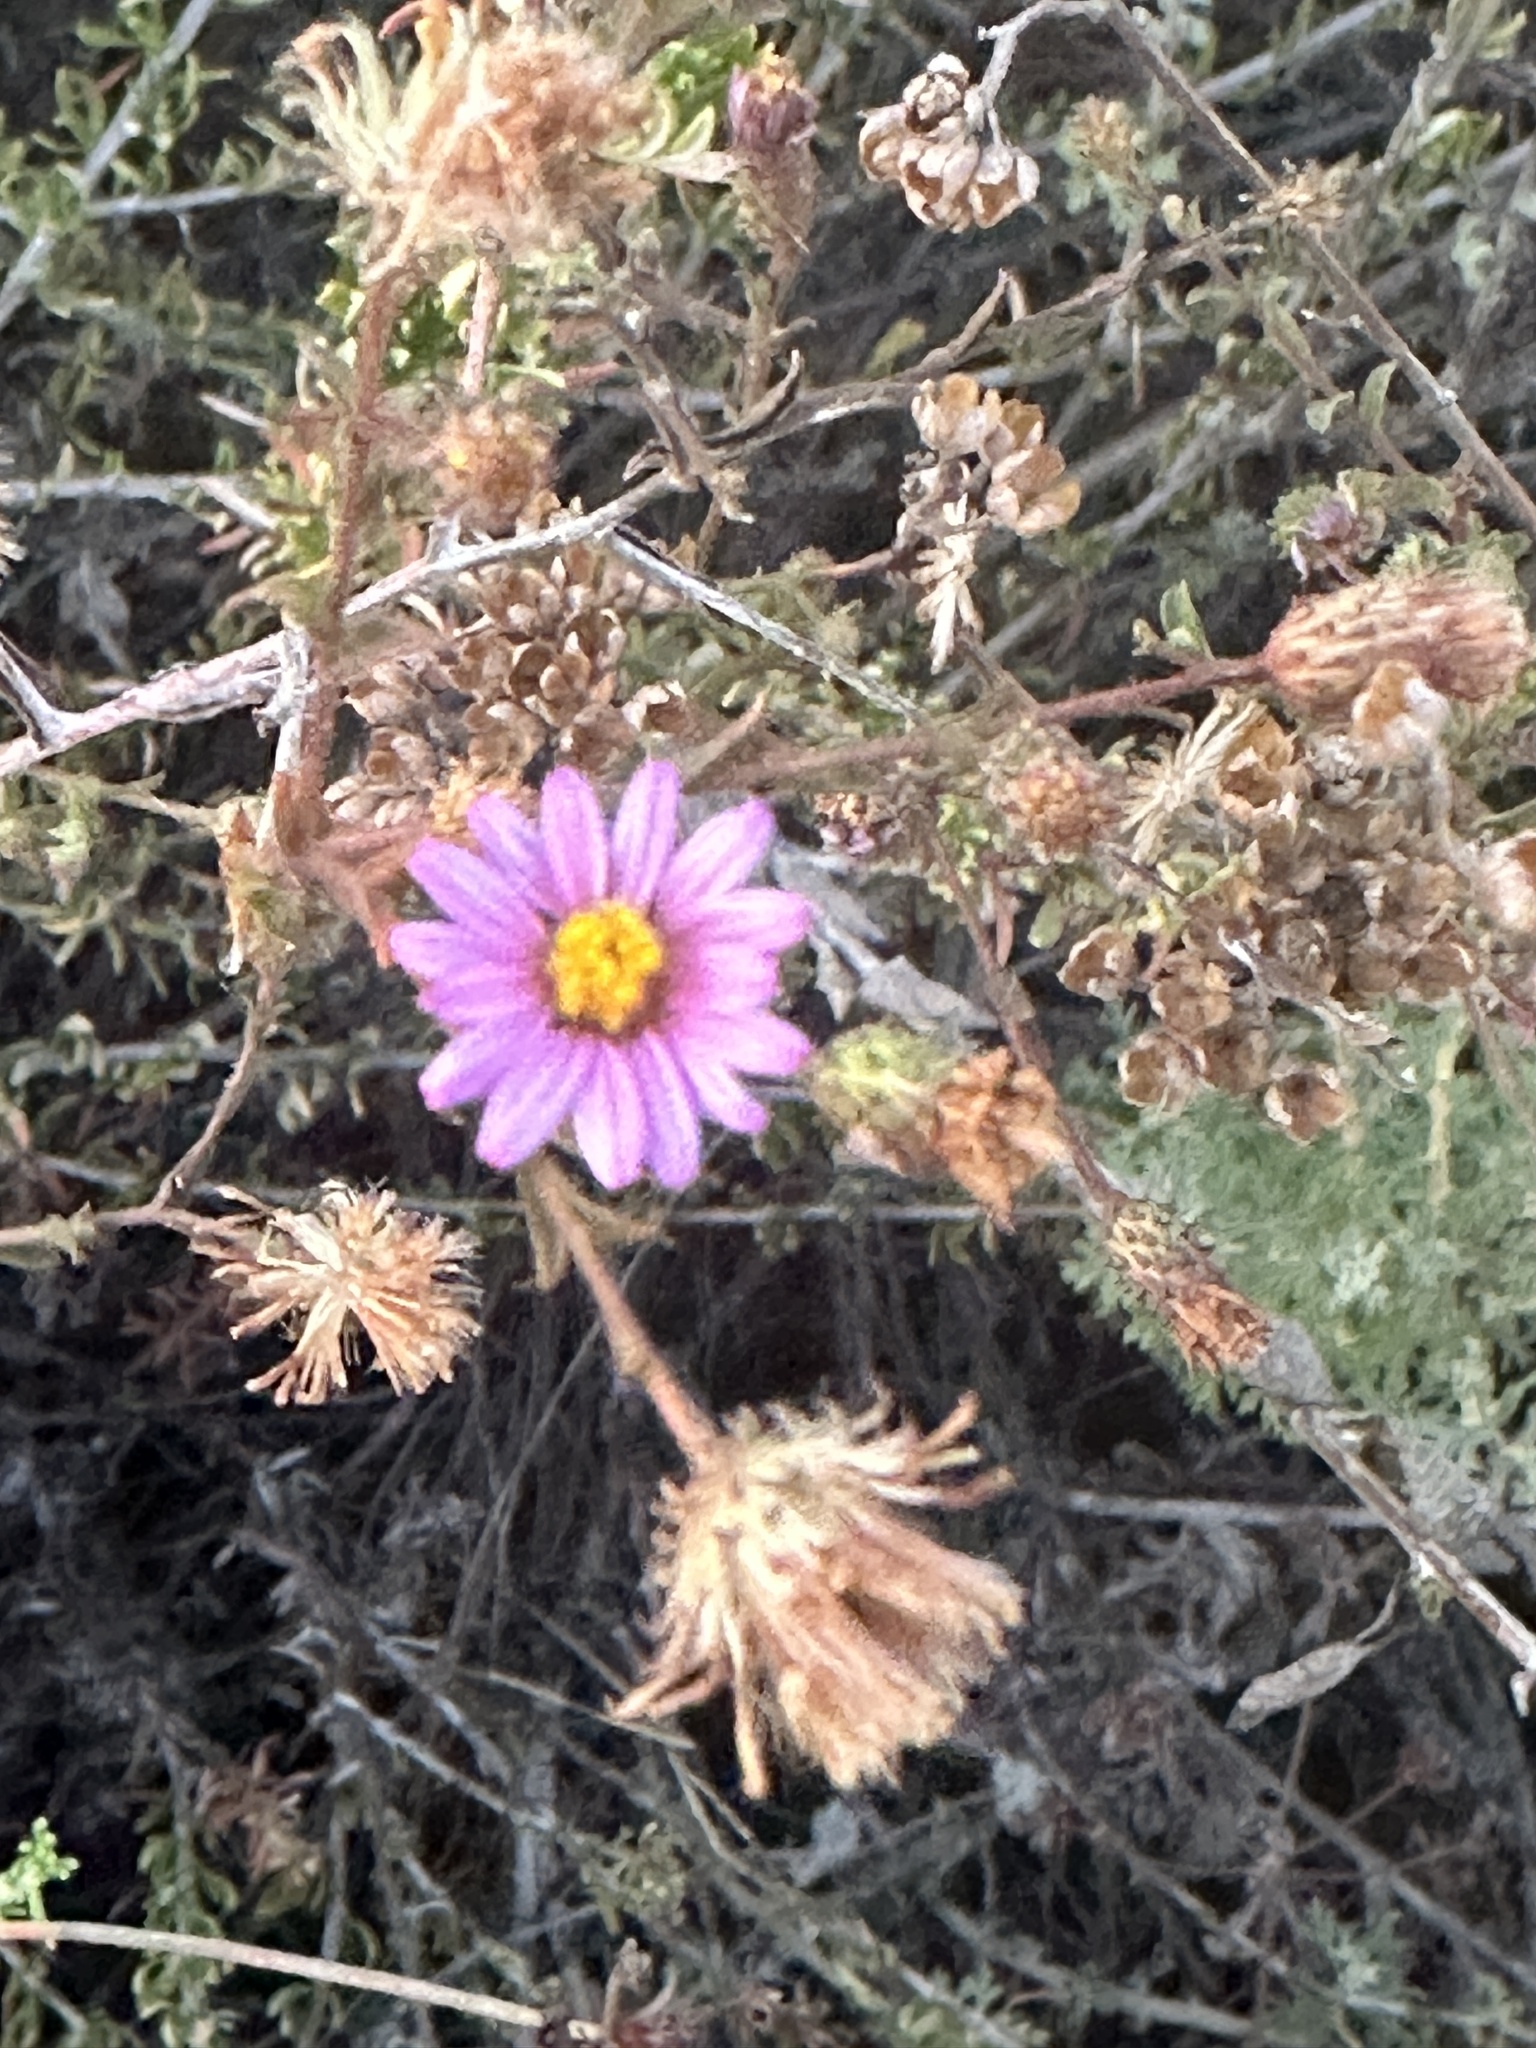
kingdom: Plantae
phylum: Tracheophyta
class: Magnoliopsida
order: Asterales
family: Asteraceae
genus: Corethrogyne
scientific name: Corethrogyne filaginifolia
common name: Sand-aster
